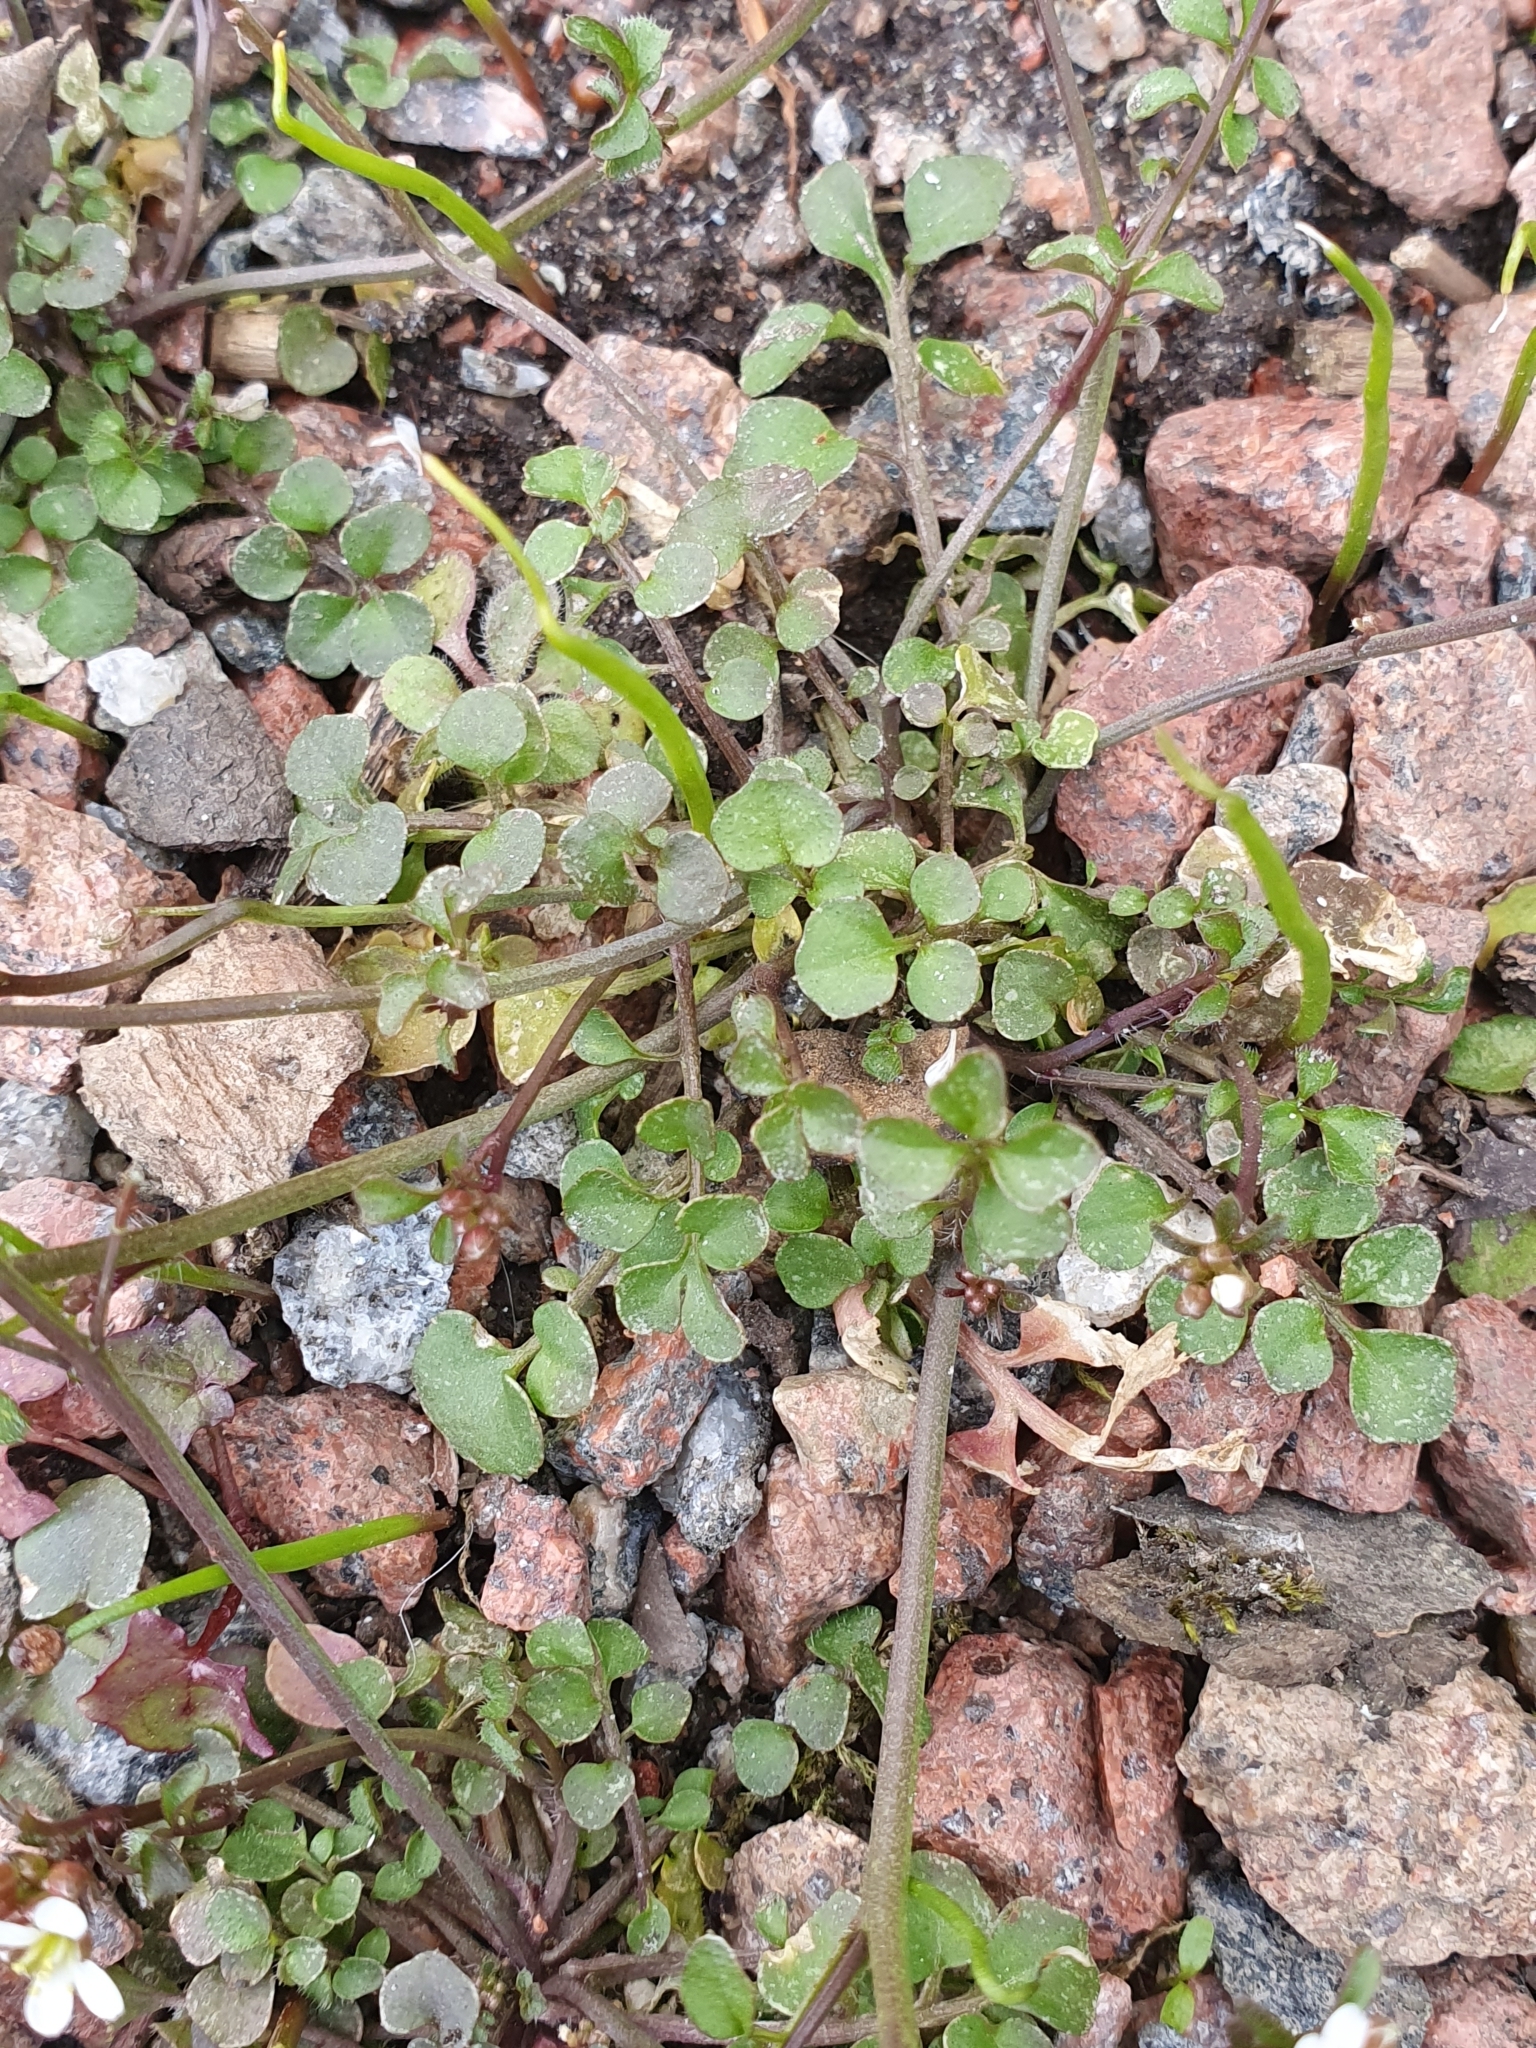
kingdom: Plantae
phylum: Tracheophyta
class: Magnoliopsida
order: Brassicales
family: Brassicaceae
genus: Cardamine
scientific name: Cardamine hirsuta
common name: Hairy bittercress
